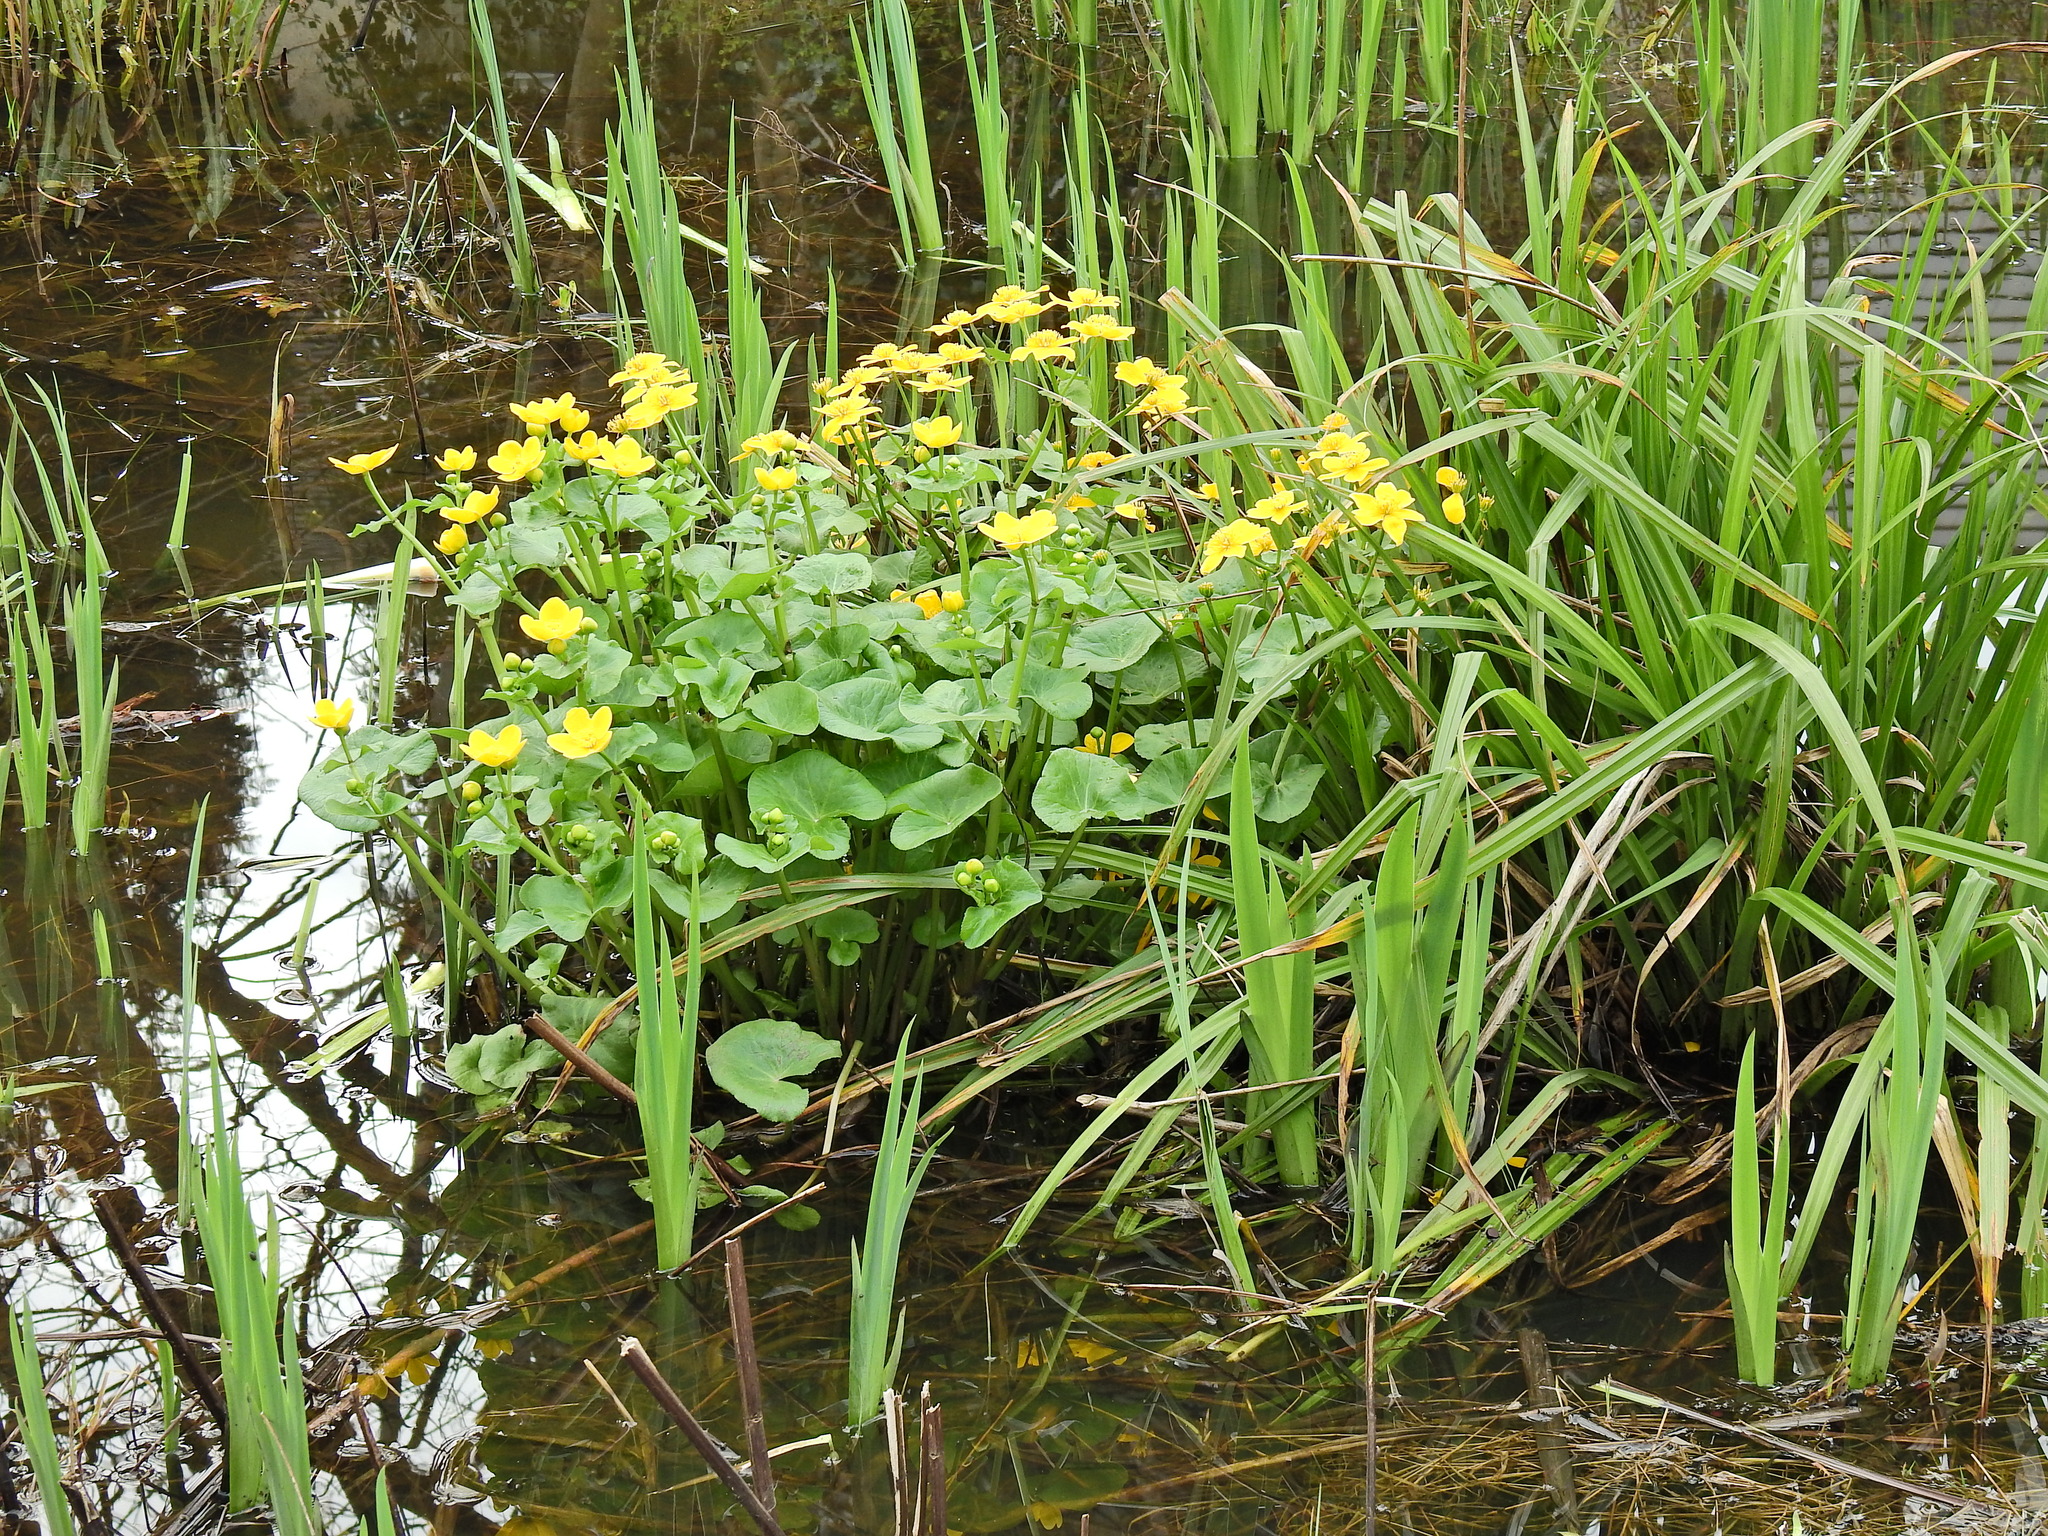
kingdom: Plantae
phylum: Tracheophyta
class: Magnoliopsida
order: Ranunculales
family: Ranunculaceae
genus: Caltha
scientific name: Caltha palustris
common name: Marsh marigold
